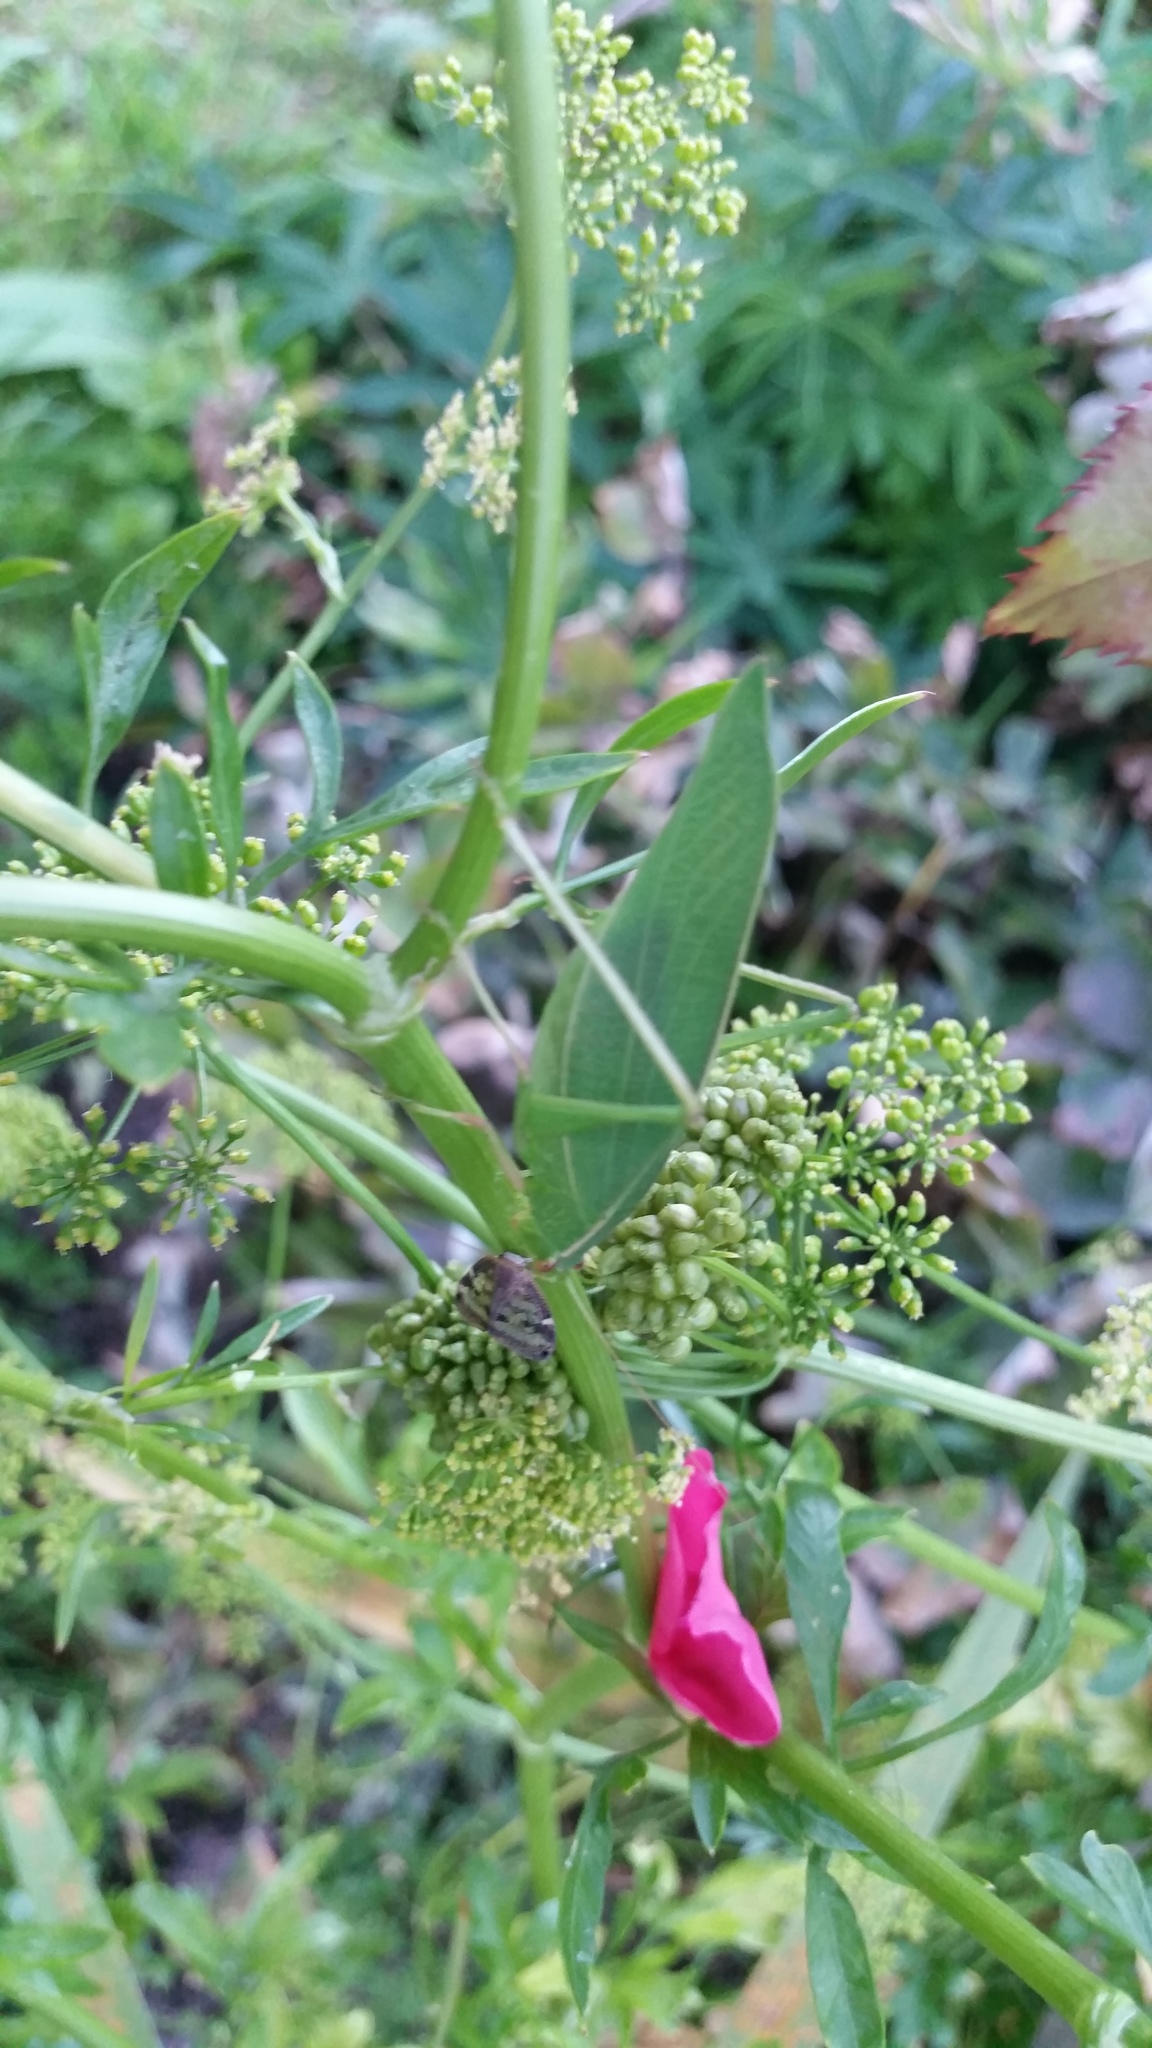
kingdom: Animalia
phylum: Arthropoda
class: Insecta
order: Orthoptera
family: Tettigoniidae
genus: Caedicia
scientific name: Caedicia simplex
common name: Common garden katydid
